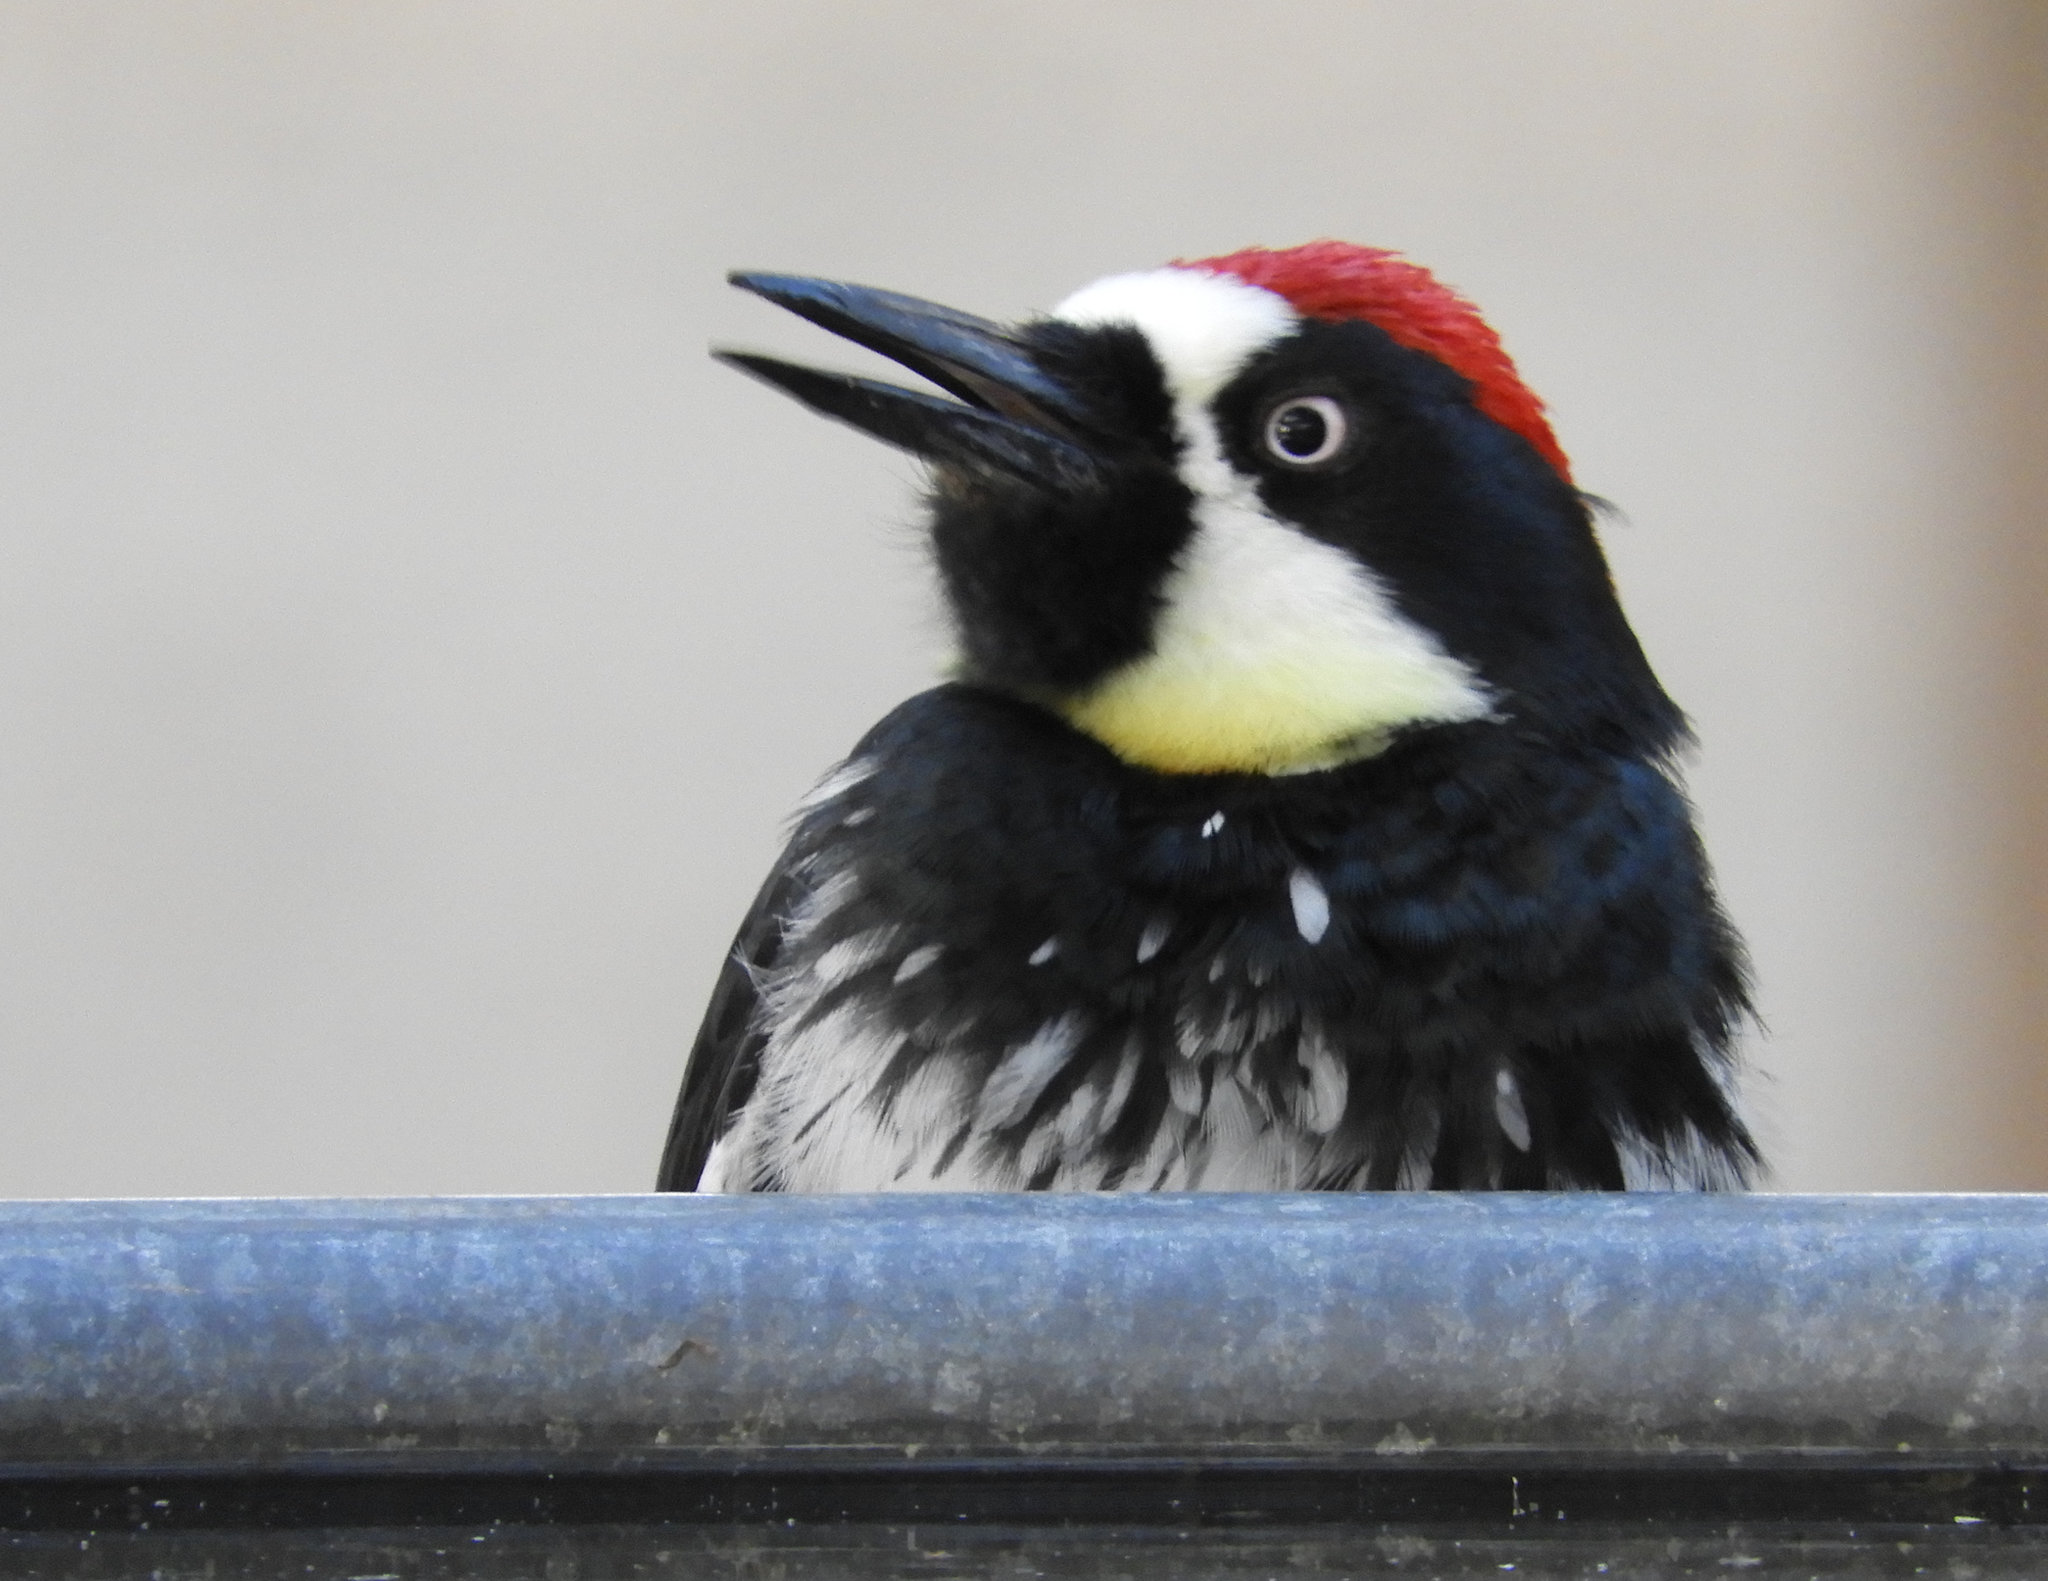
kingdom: Animalia
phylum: Chordata
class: Aves
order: Piciformes
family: Picidae
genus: Melanerpes
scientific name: Melanerpes formicivorus
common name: Acorn woodpecker
